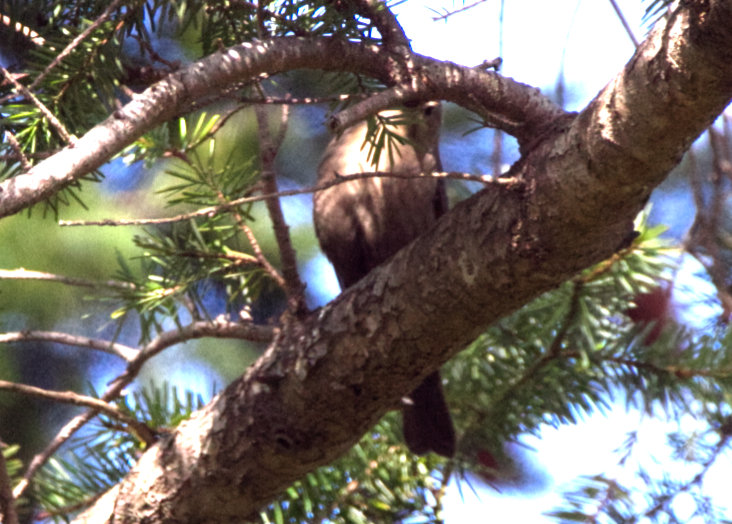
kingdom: Animalia
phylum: Chordata
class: Aves
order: Passeriformes
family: Icteridae
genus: Molothrus
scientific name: Molothrus ater
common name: Brown-headed cowbird
